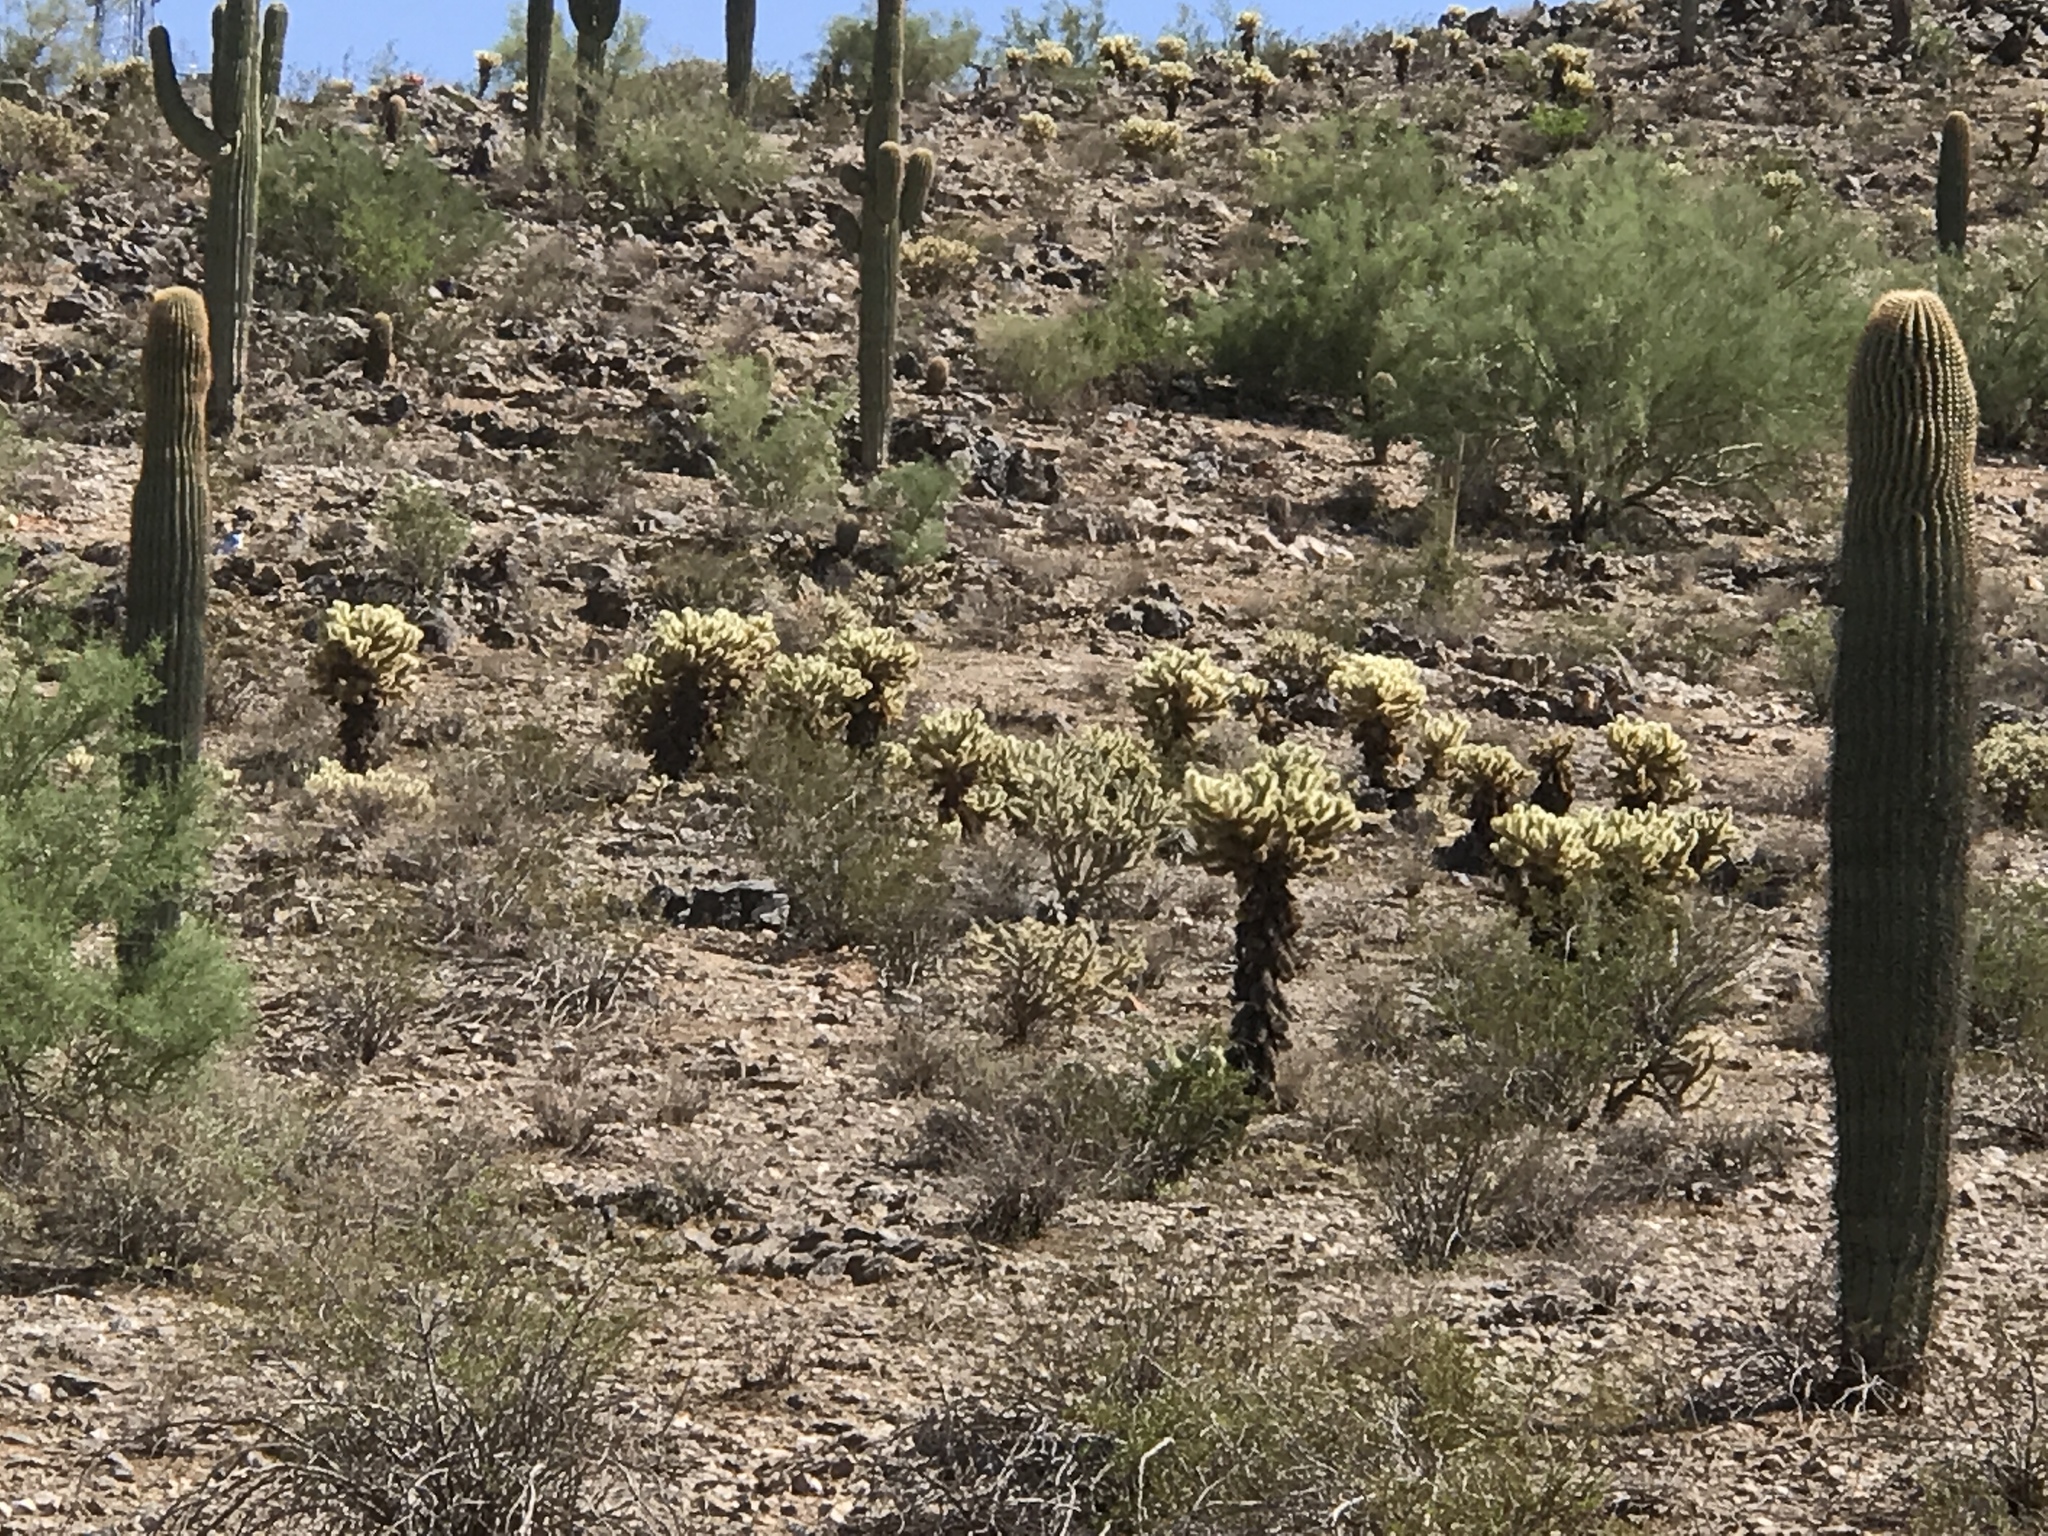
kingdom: Plantae
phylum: Tracheophyta
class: Magnoliopsida
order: Caryophyllales
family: Cactaceae
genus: Cylindropuntia
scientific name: Cylindropuntia fosbergii
